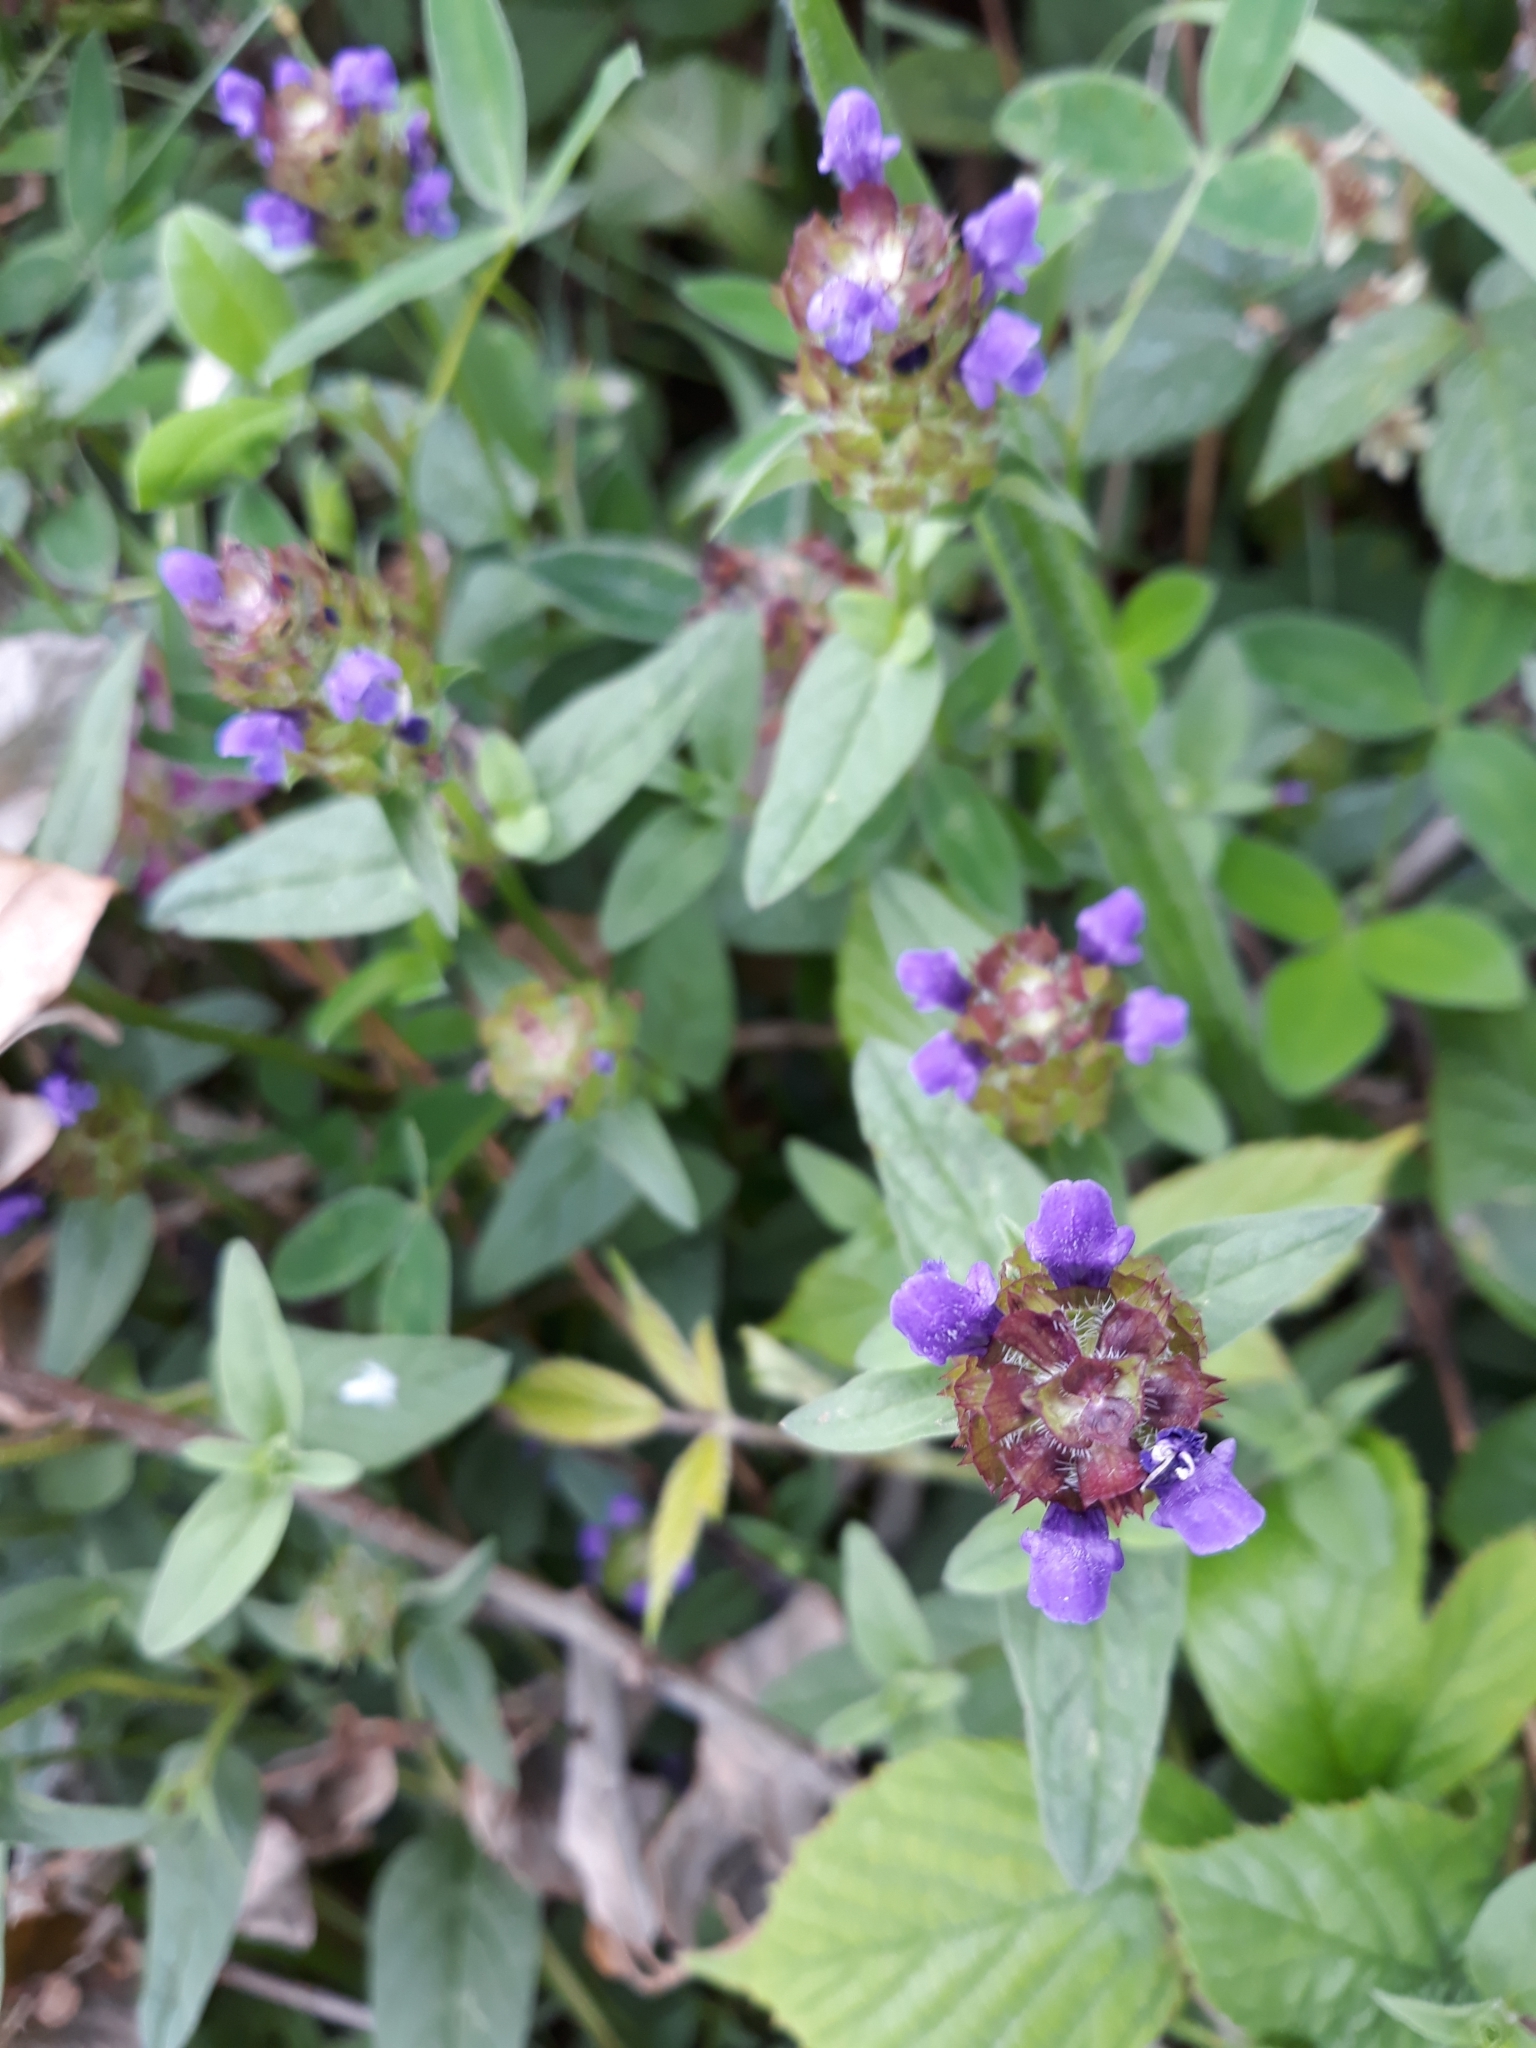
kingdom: Plantae
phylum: Tracheophyta
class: Magnoliopsida
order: Lamiales
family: Lamiaceae
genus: Prunella
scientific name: Prunella vulgaris
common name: Heal-all
